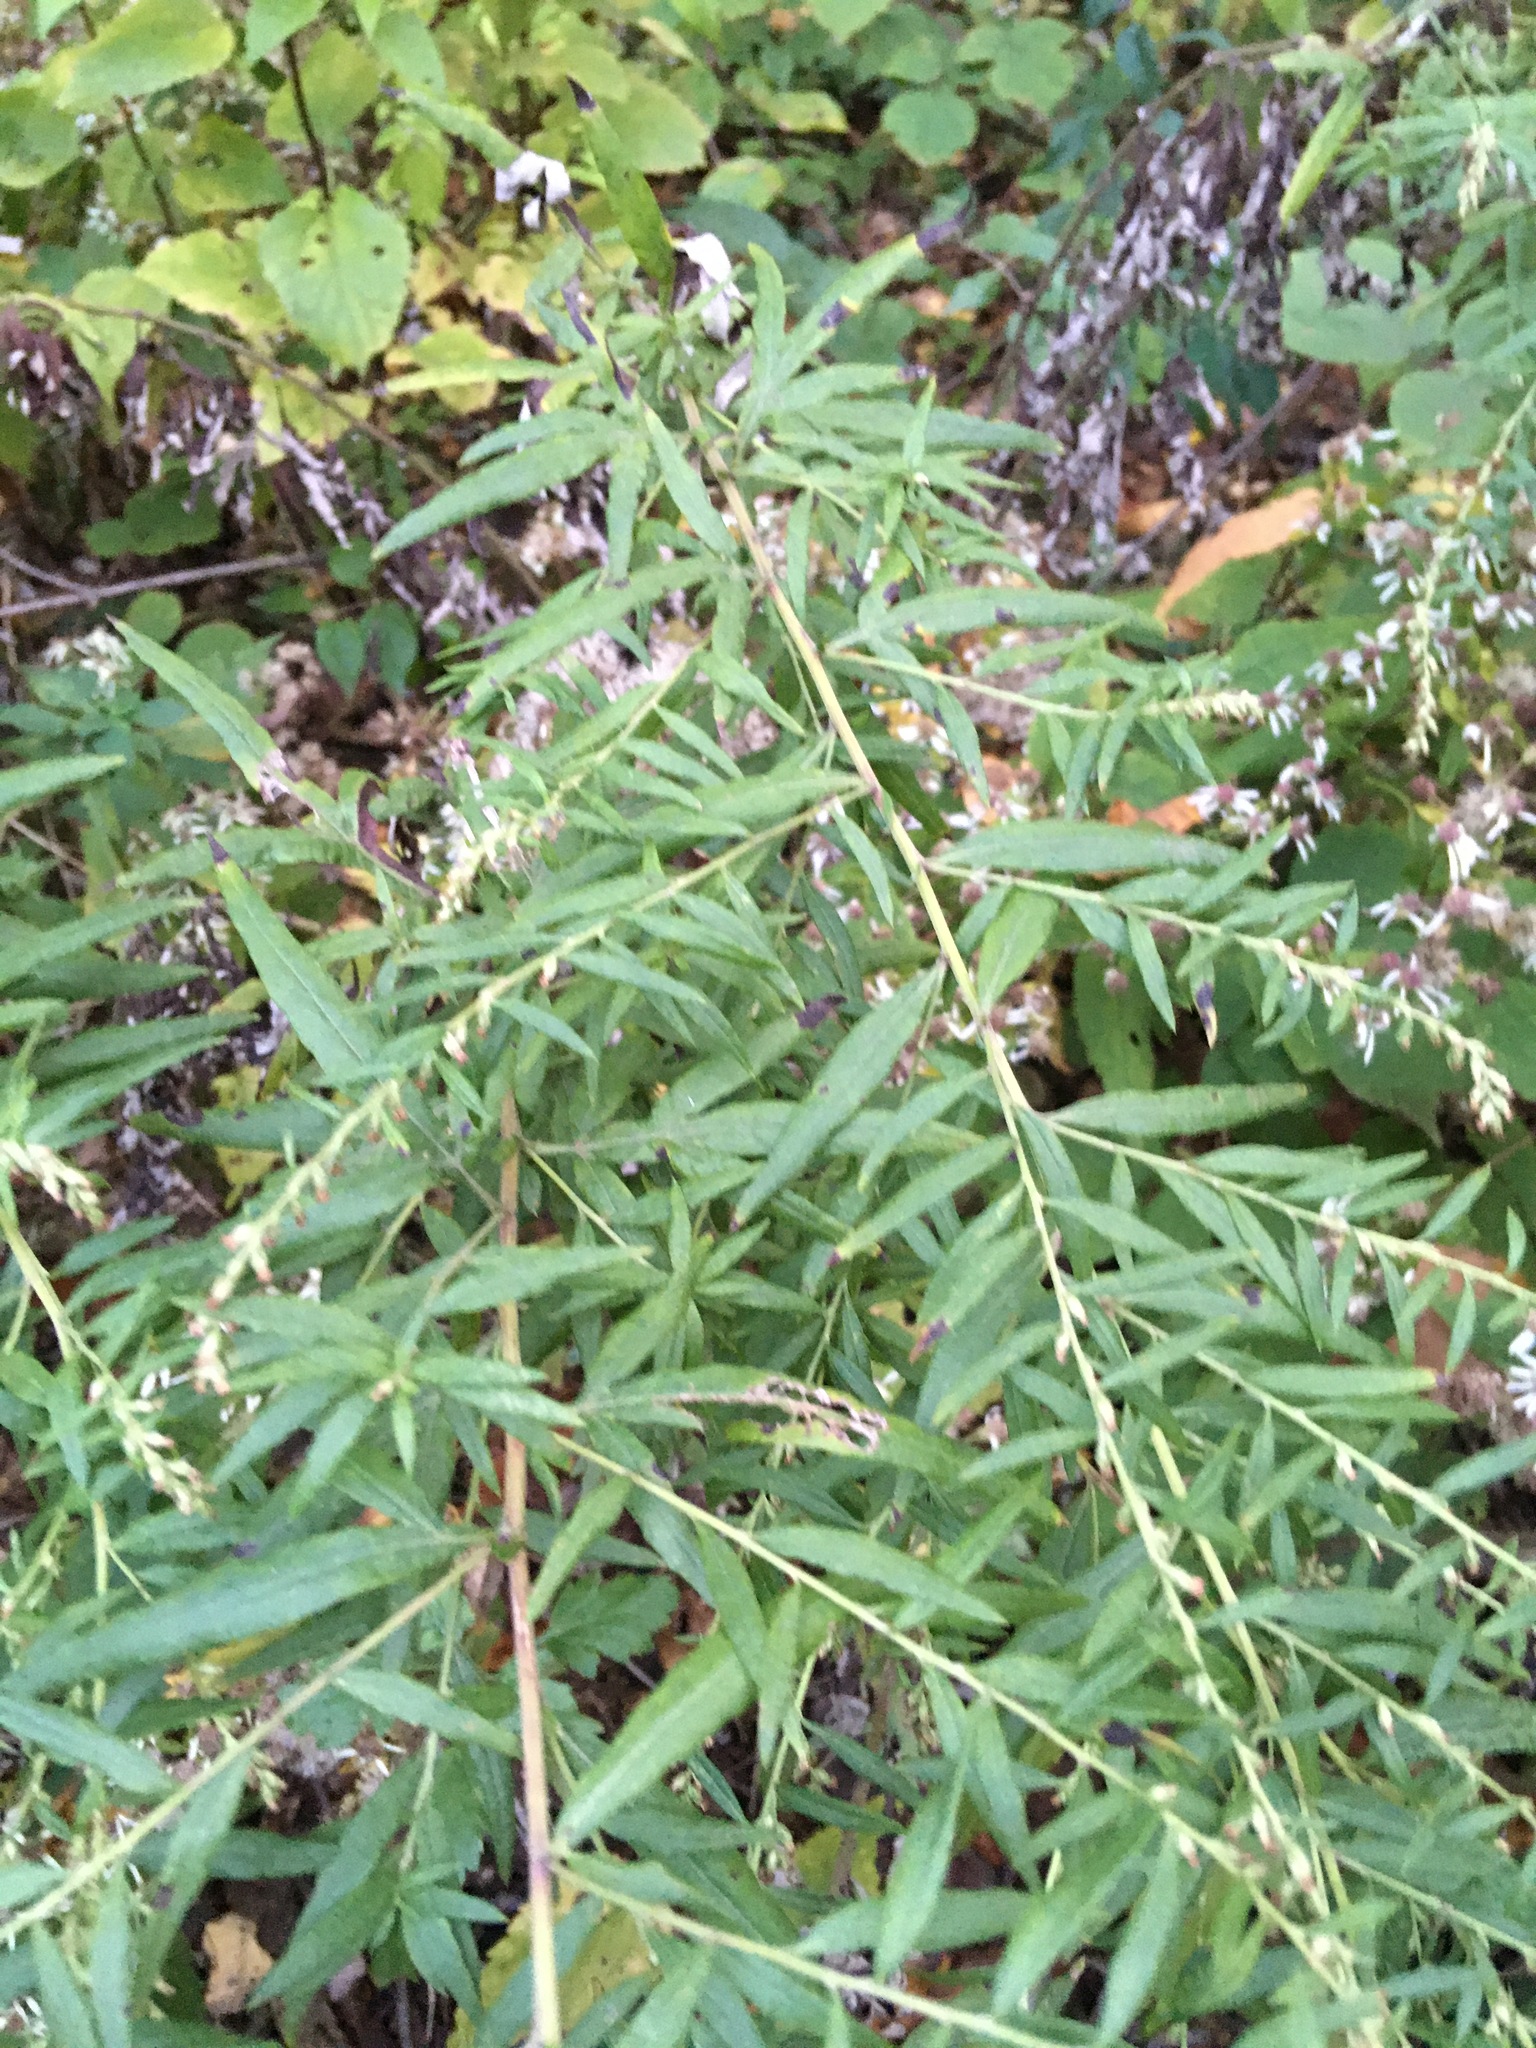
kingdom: Plantae
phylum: Tracheophyta
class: Magnoliopsida
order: Asterales
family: Asteraceae
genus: Artemisia
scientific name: Artemisia vulgaris
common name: Mugwort
